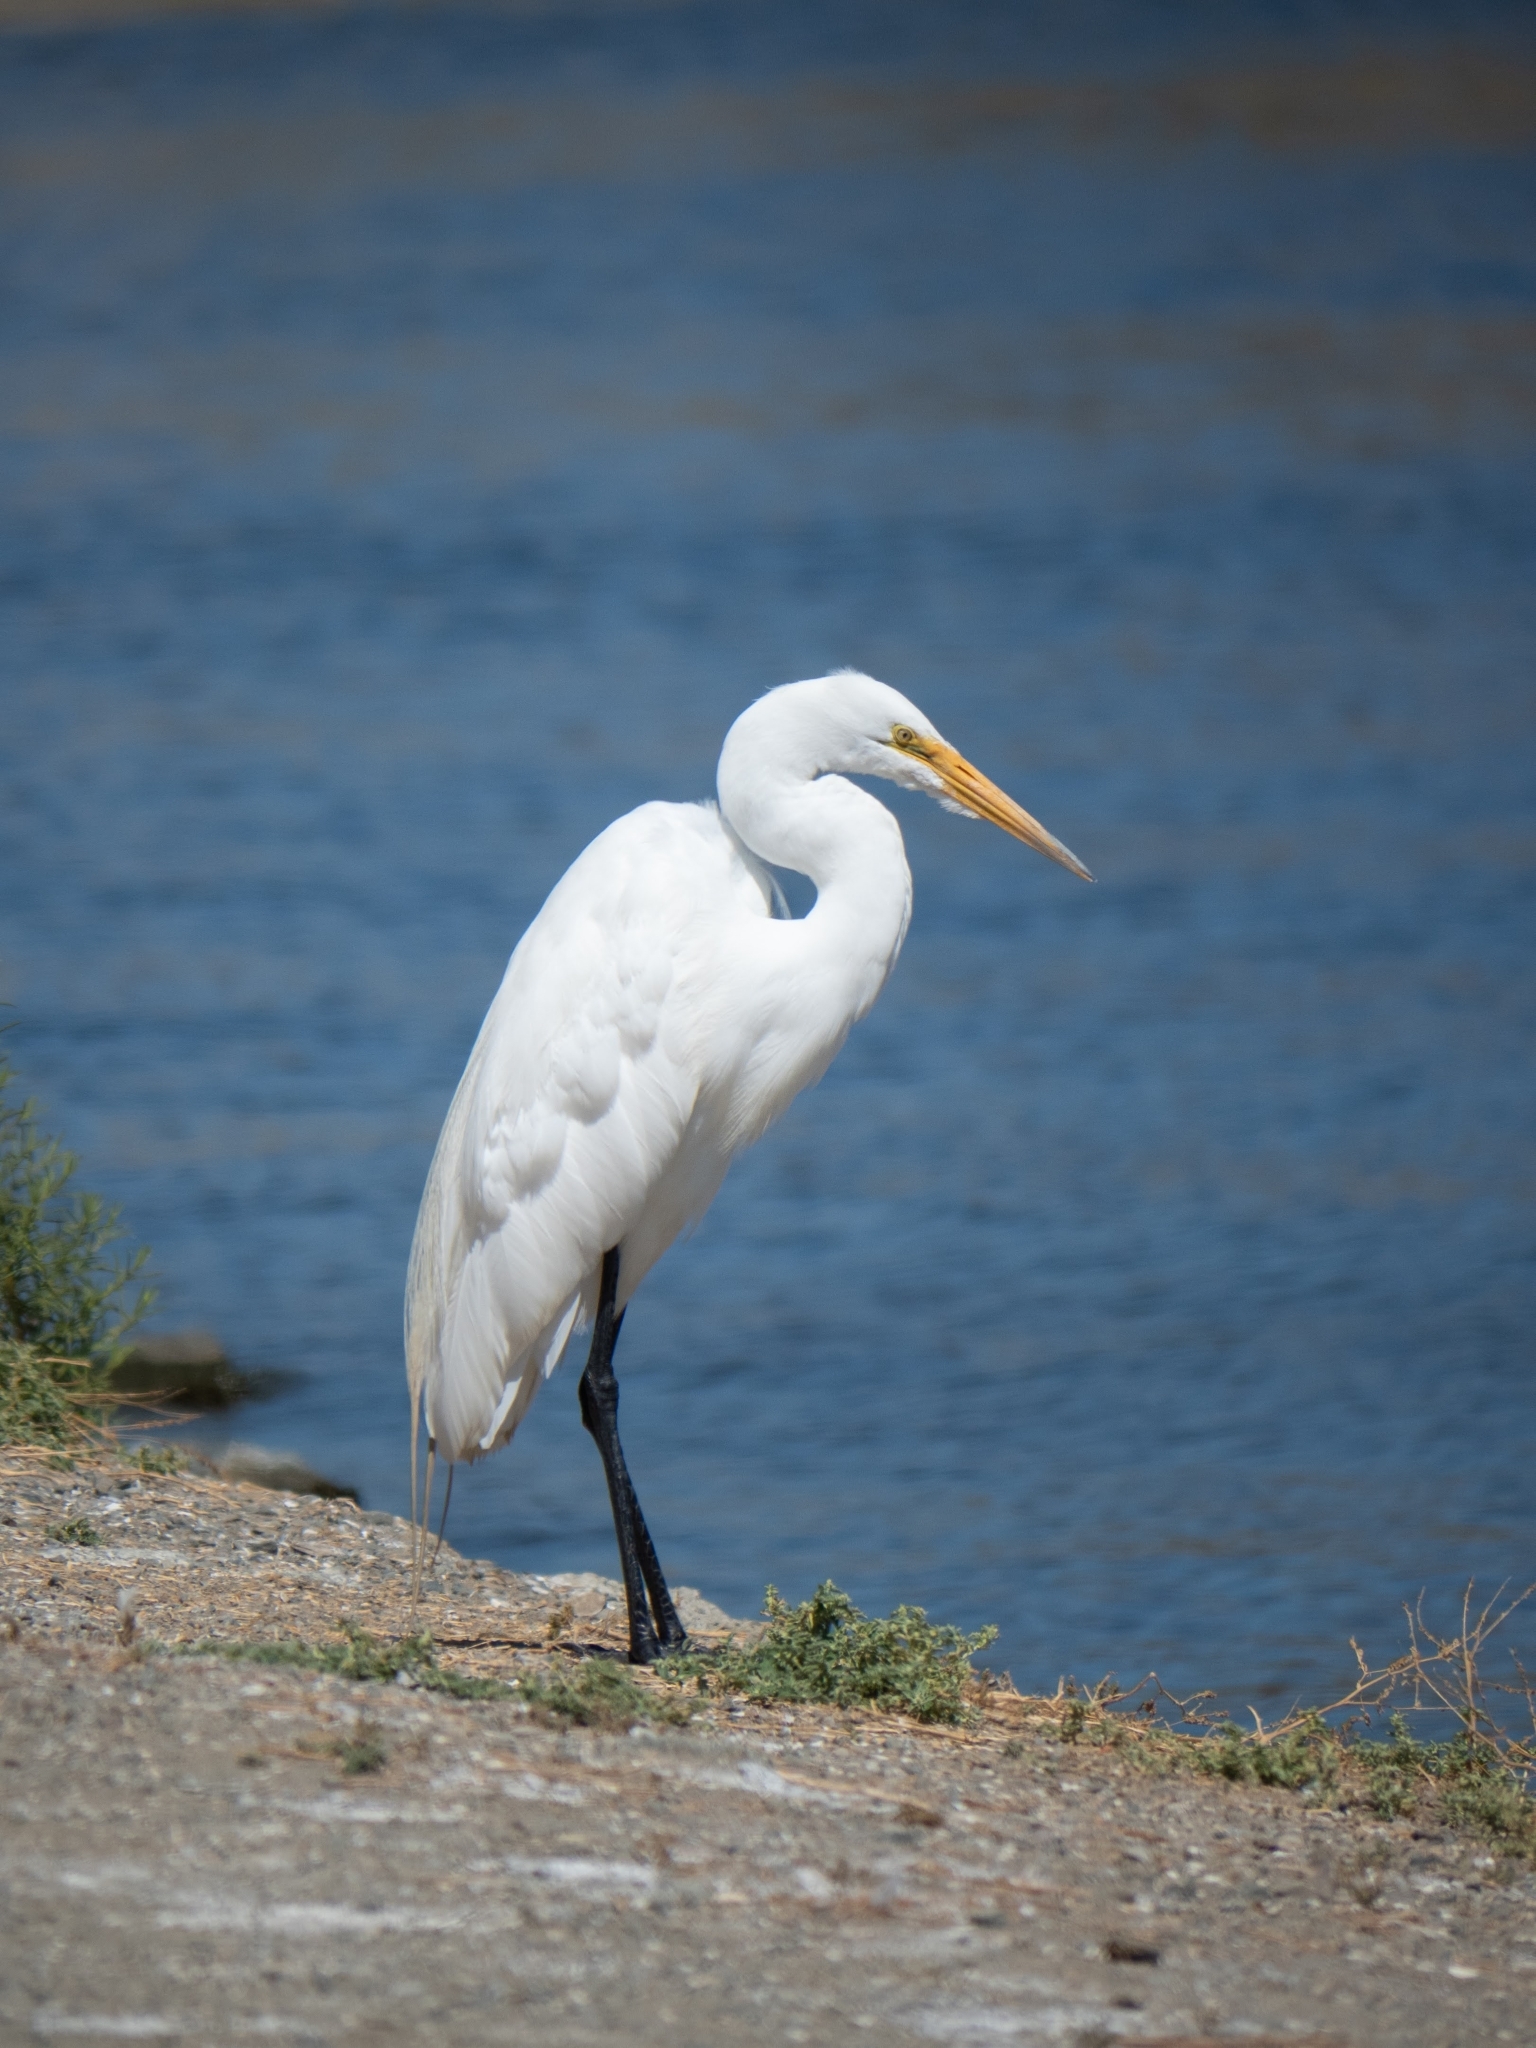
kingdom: Animalia
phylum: Chordata
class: Aves
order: Pelecaniformes
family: Ardeidae
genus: Ardea
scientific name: Ardea alba
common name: Great egret
